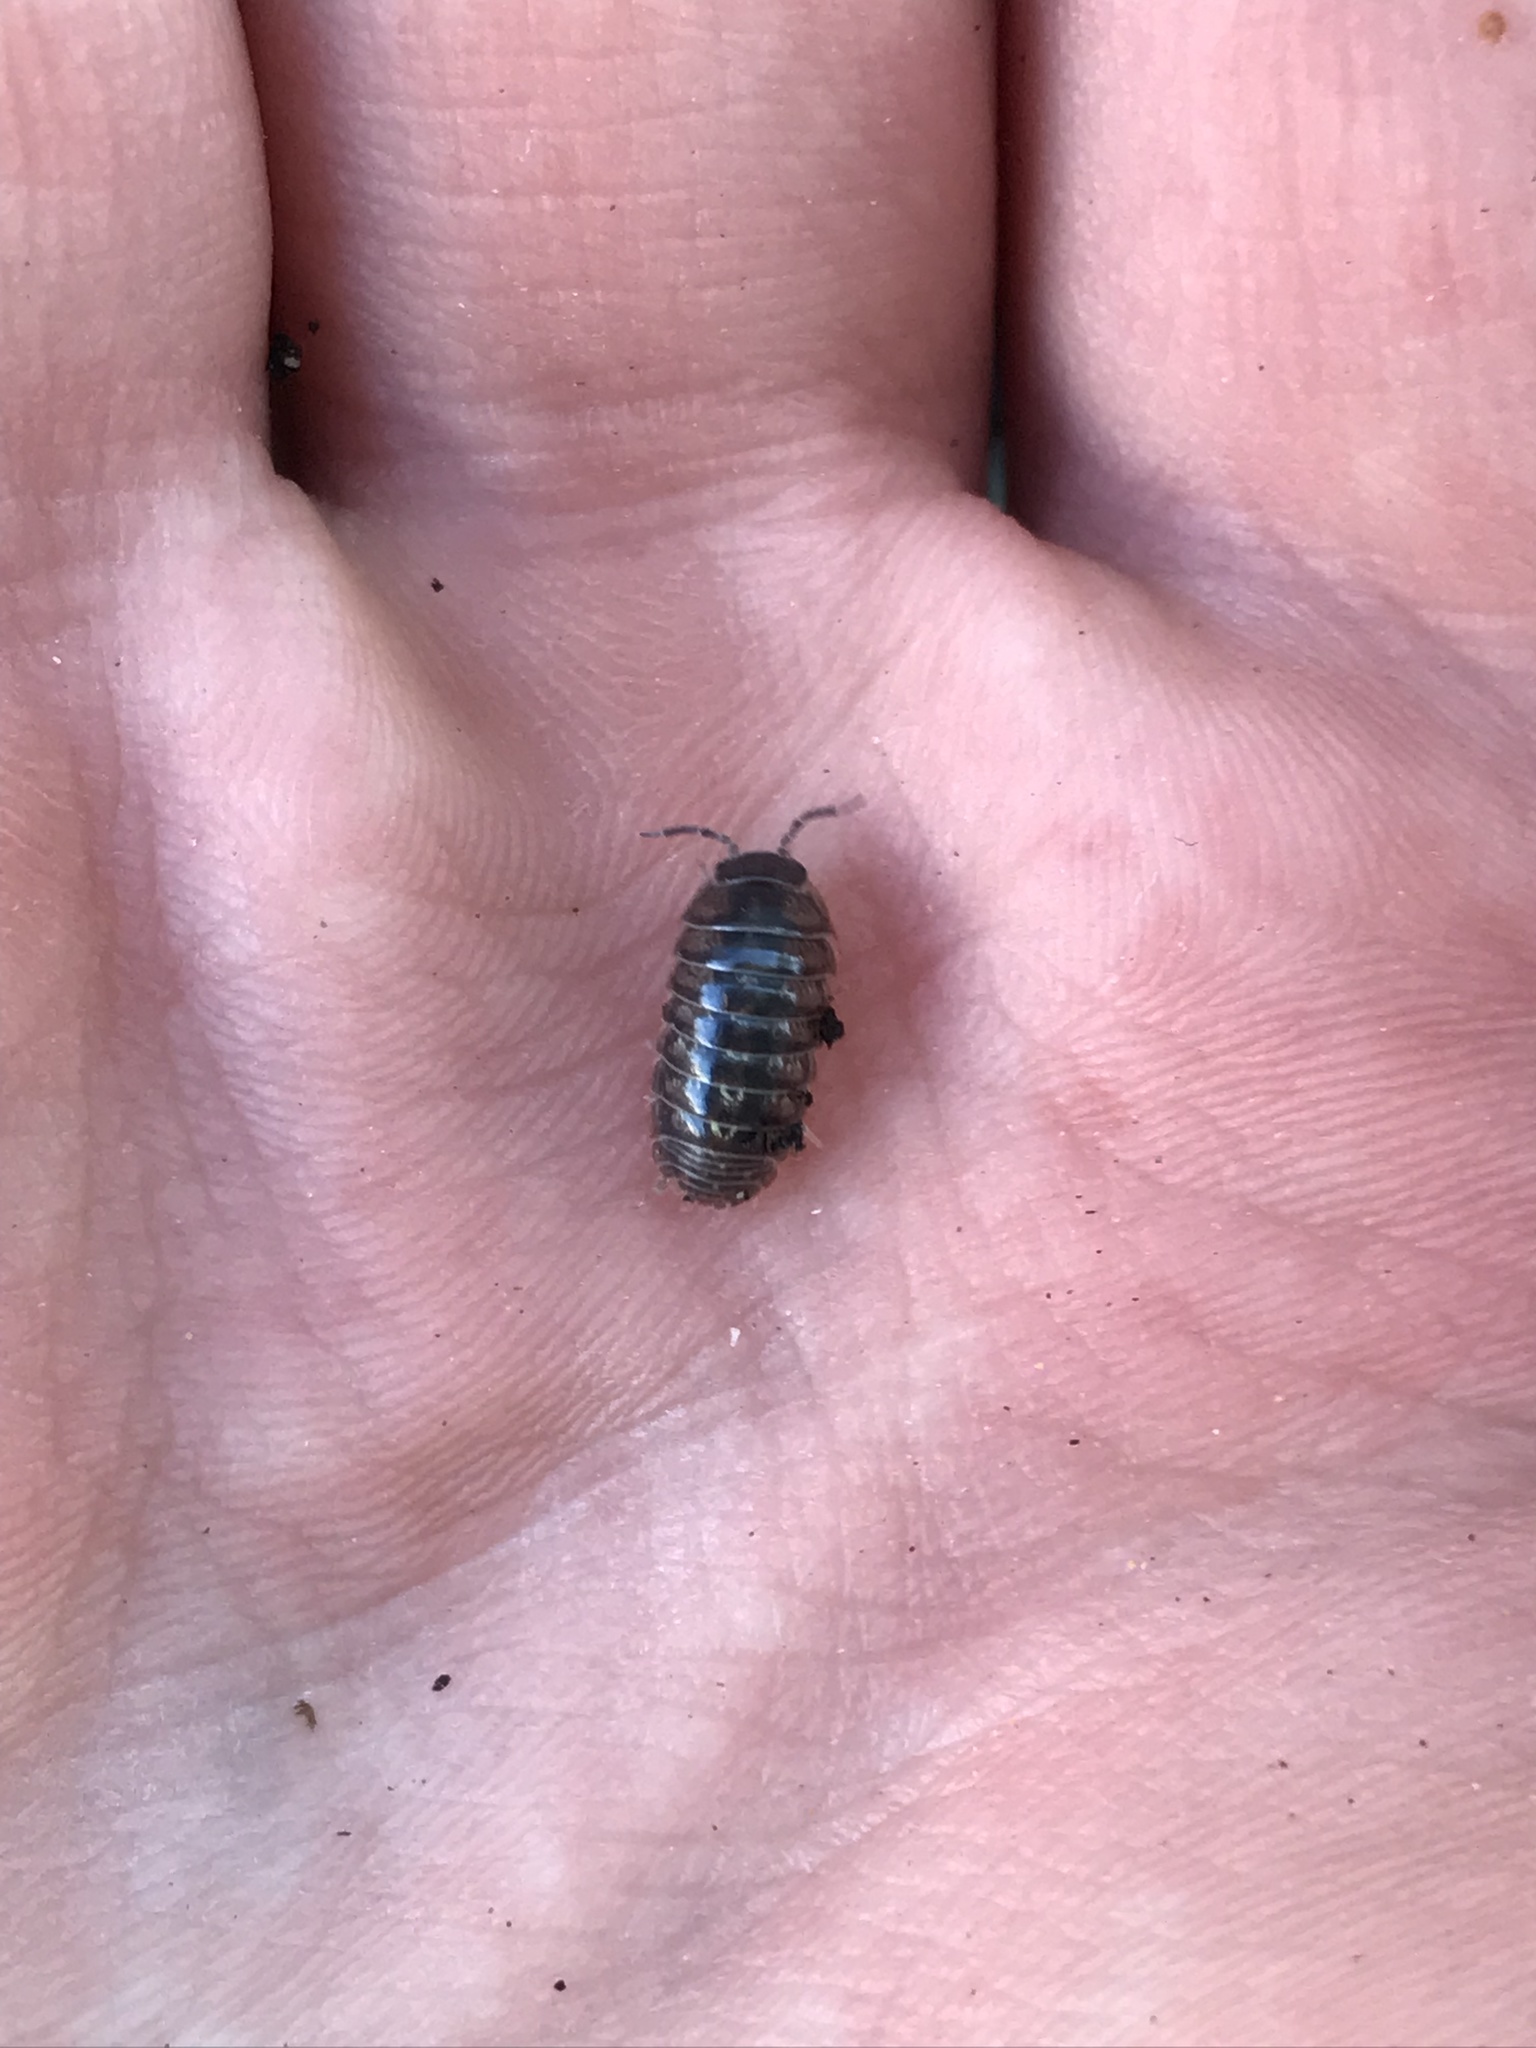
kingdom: Animalia
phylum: Arthropoda
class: Malacostraca
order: Isopoda
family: Armadillidiidae
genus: Armadillidium
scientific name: Armadillidium vulgare
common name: Common pill woodlouse
